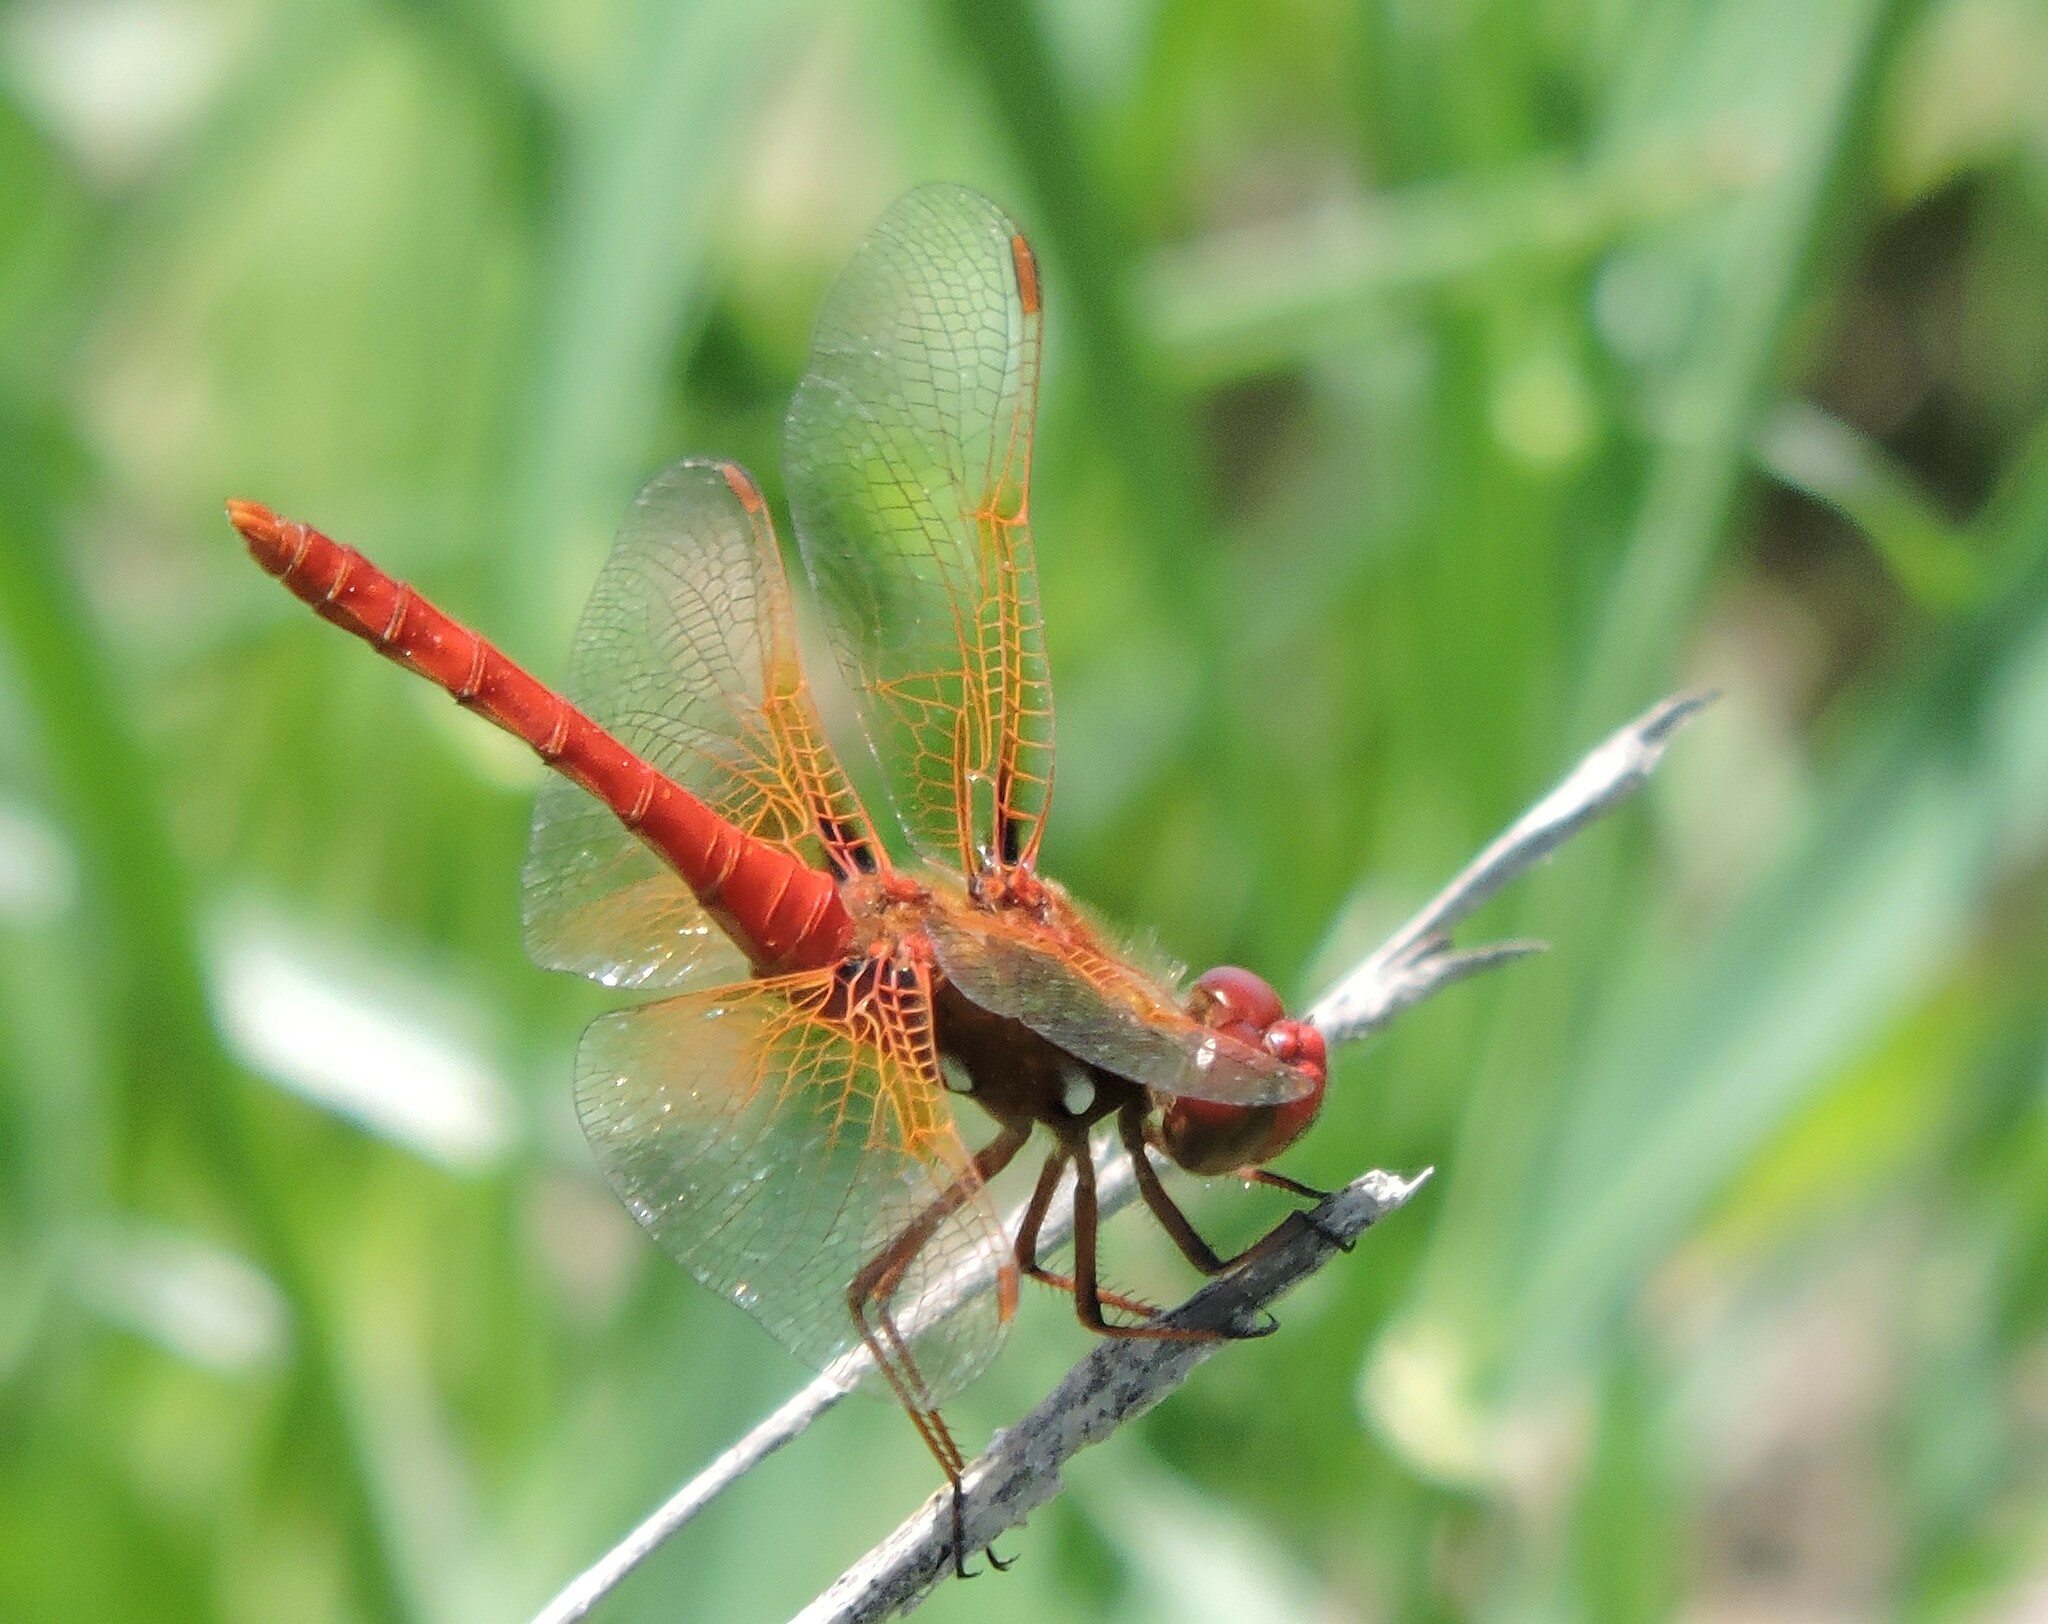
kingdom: Animalia
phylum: Arthropoda
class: Insecta
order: Odonata
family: Libellulidae
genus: Sympetrum
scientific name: Sympetrum illotum
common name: Cardinal meadowhawk
